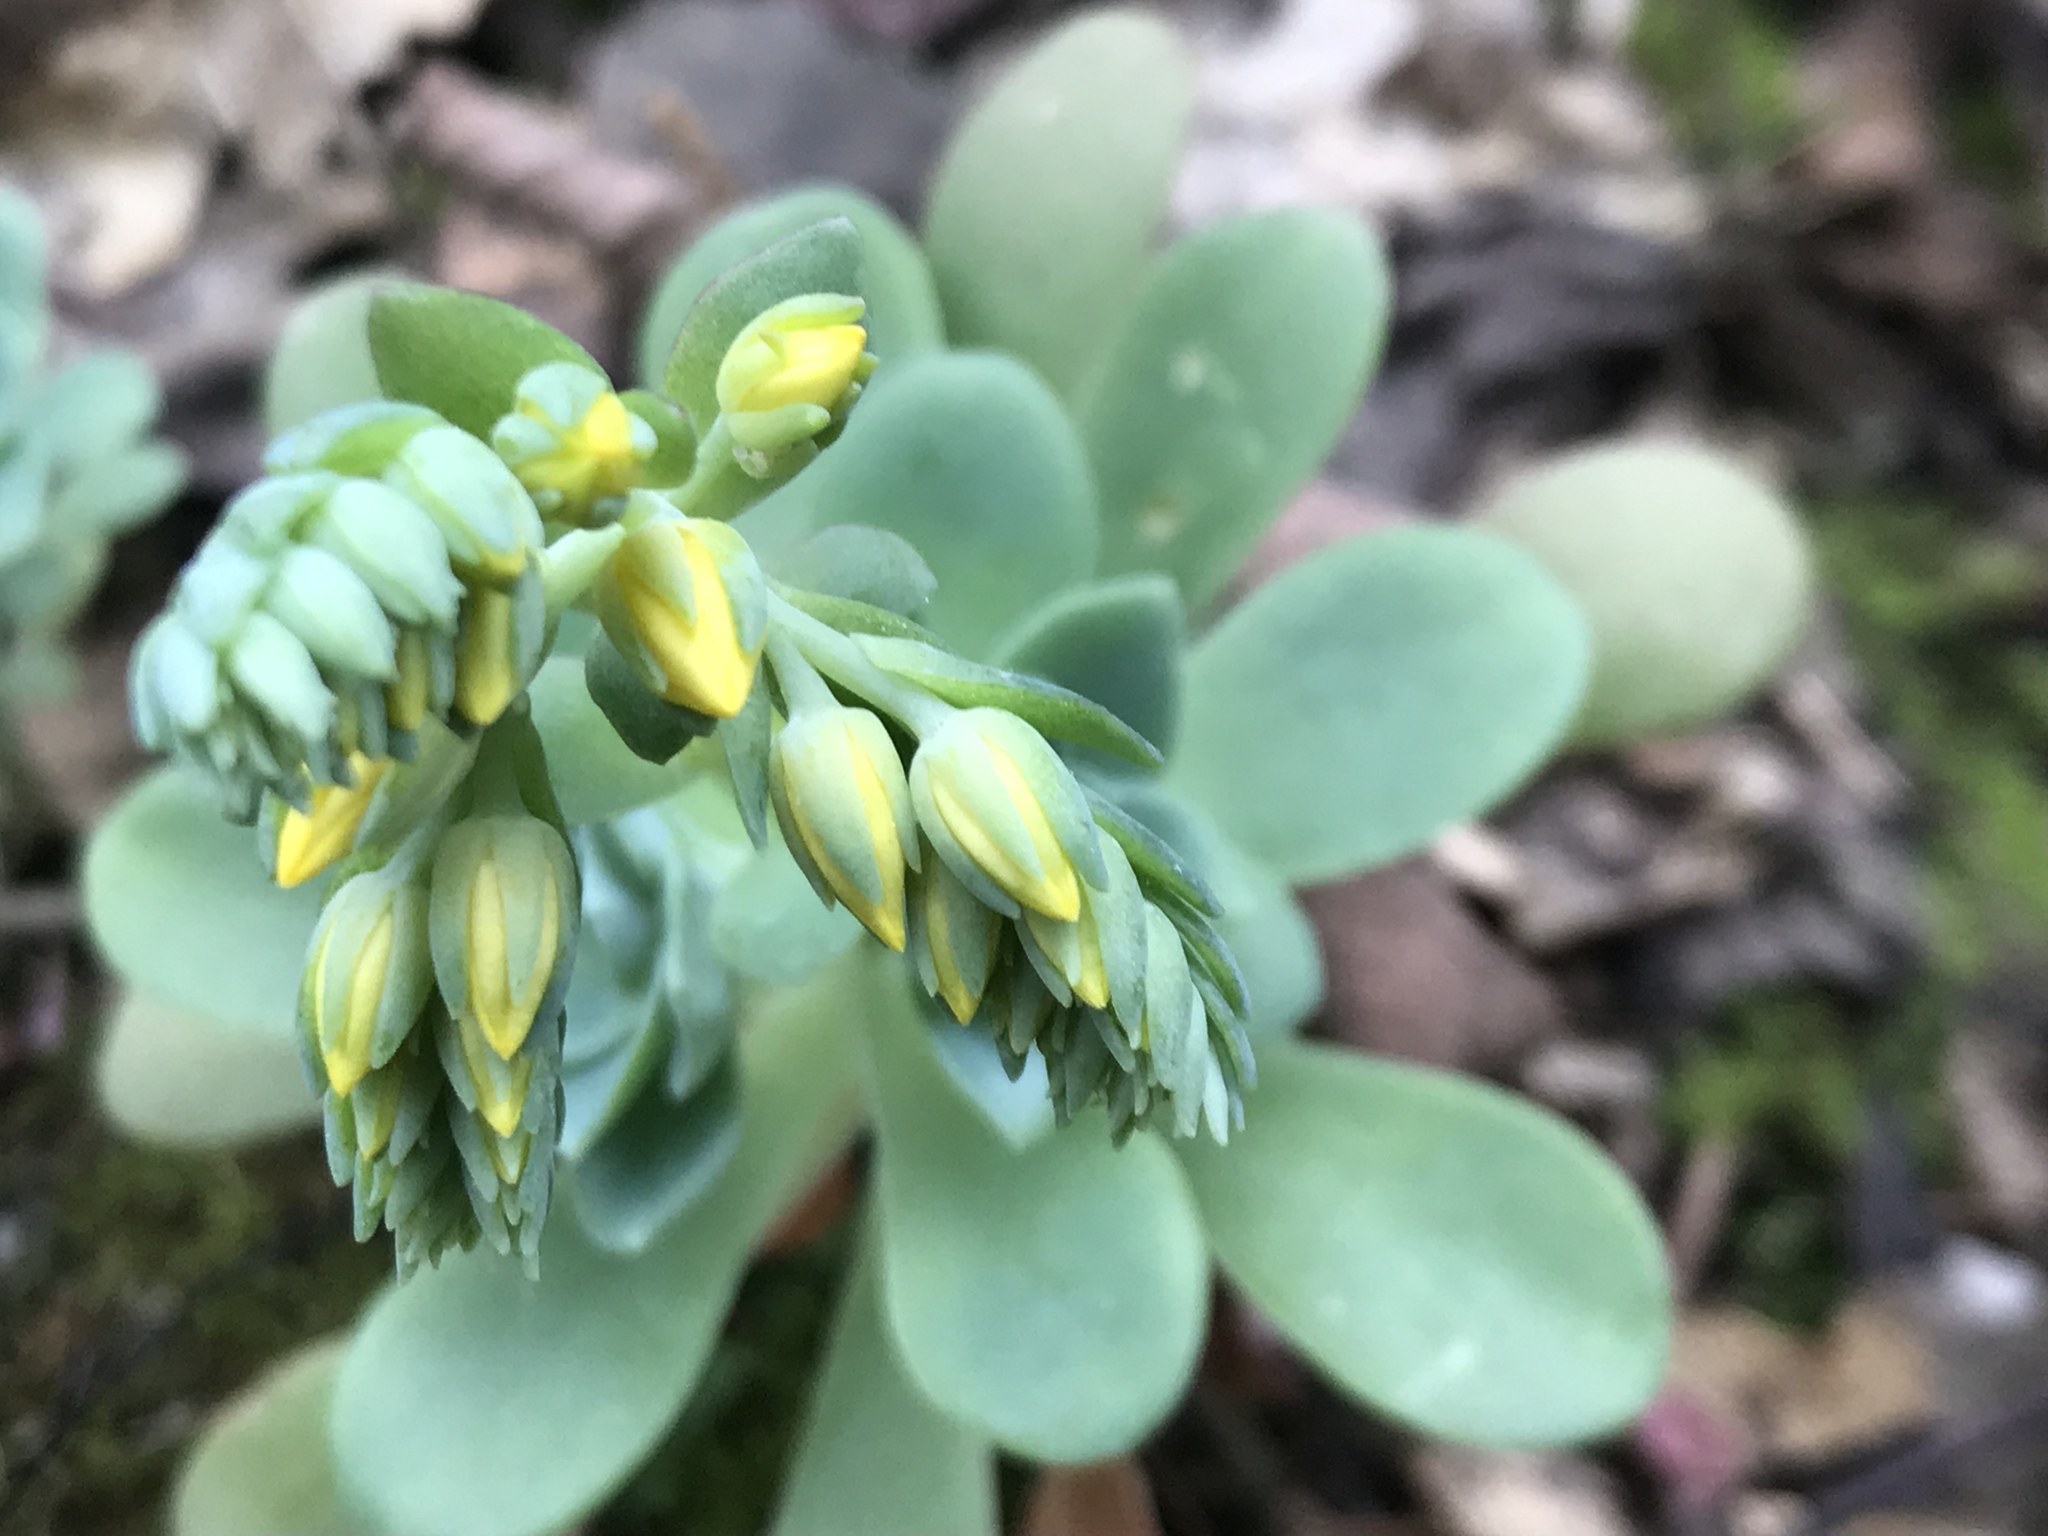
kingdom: Plantae
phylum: Tracheophyta
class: Magnoliopsida
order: Saxifragales
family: Crassulaceae
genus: Sedum
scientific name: Sedum palmeri
